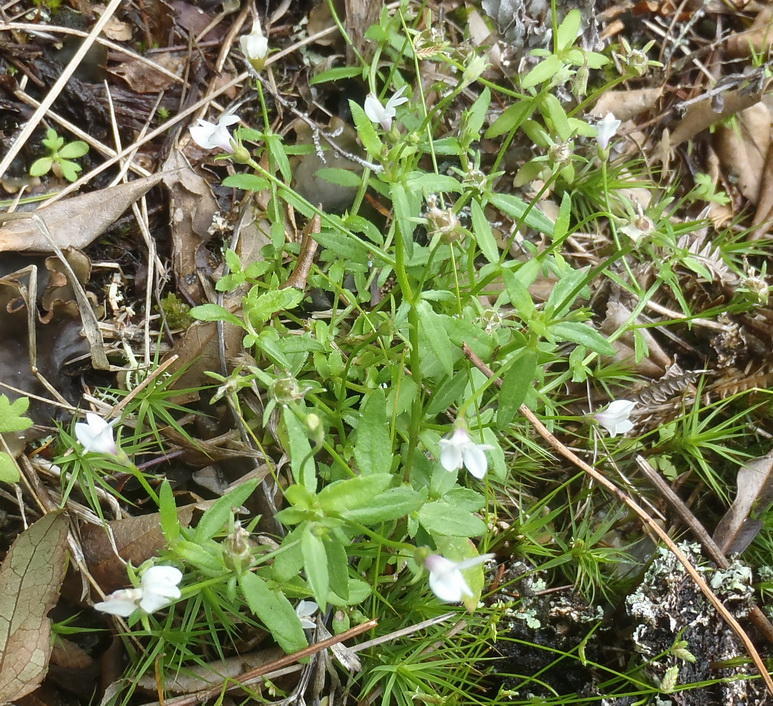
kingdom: Plantae
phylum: Tracheophyta
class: Magnoliopsida
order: Asterales
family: Campanulaceae
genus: Monopsis
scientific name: Monopsis alba
